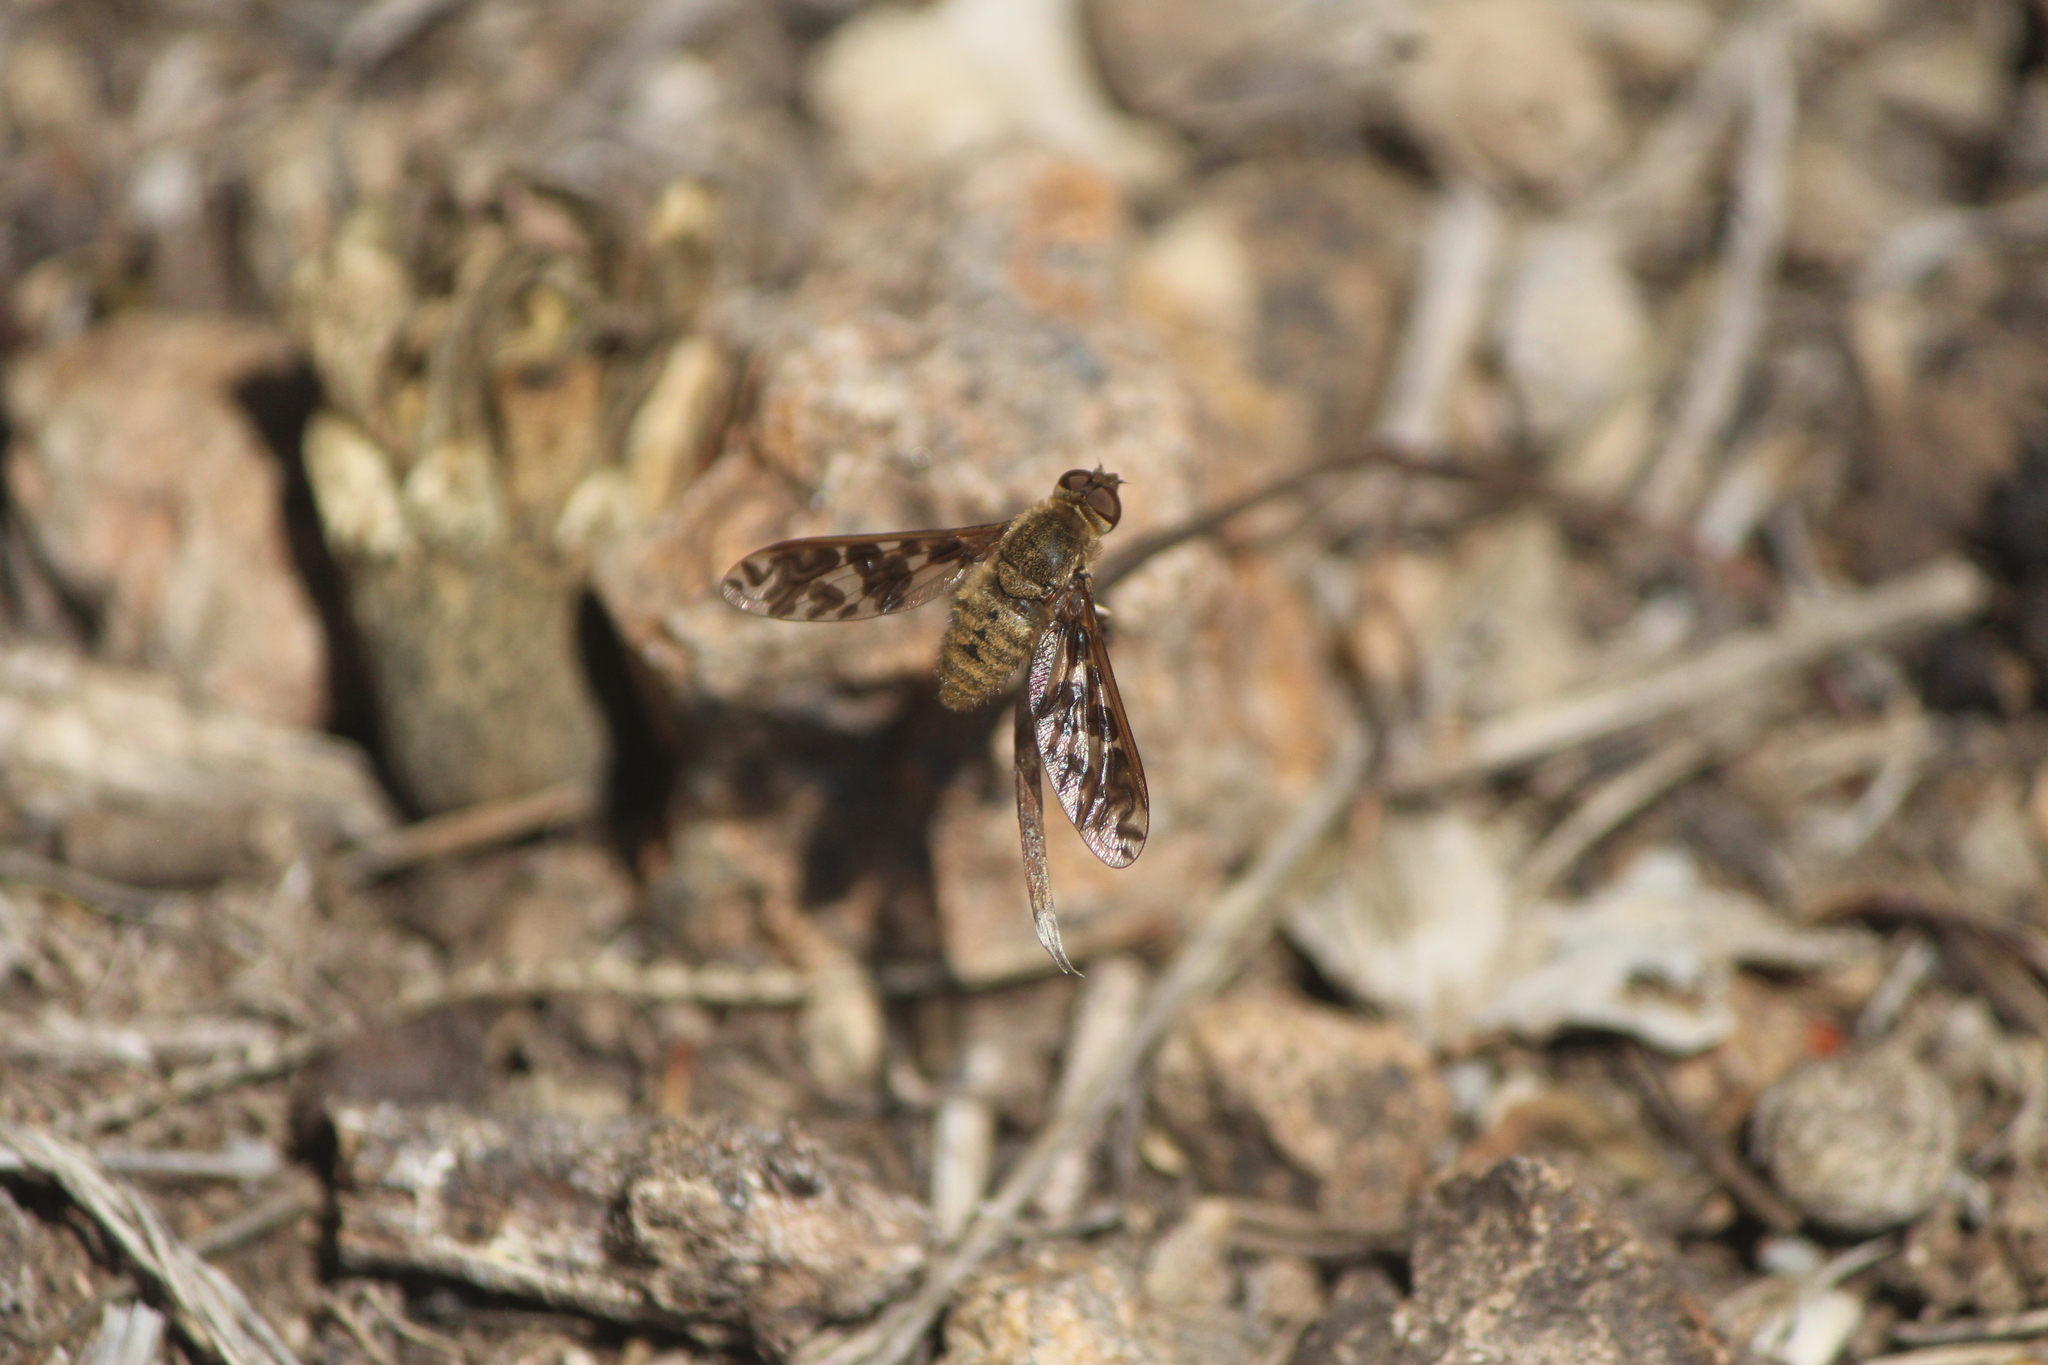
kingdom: Animalia
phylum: Arthropoda
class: Insecta
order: Diptera
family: Bombyliidae
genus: Dipalta
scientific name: Dipalta serpentina
